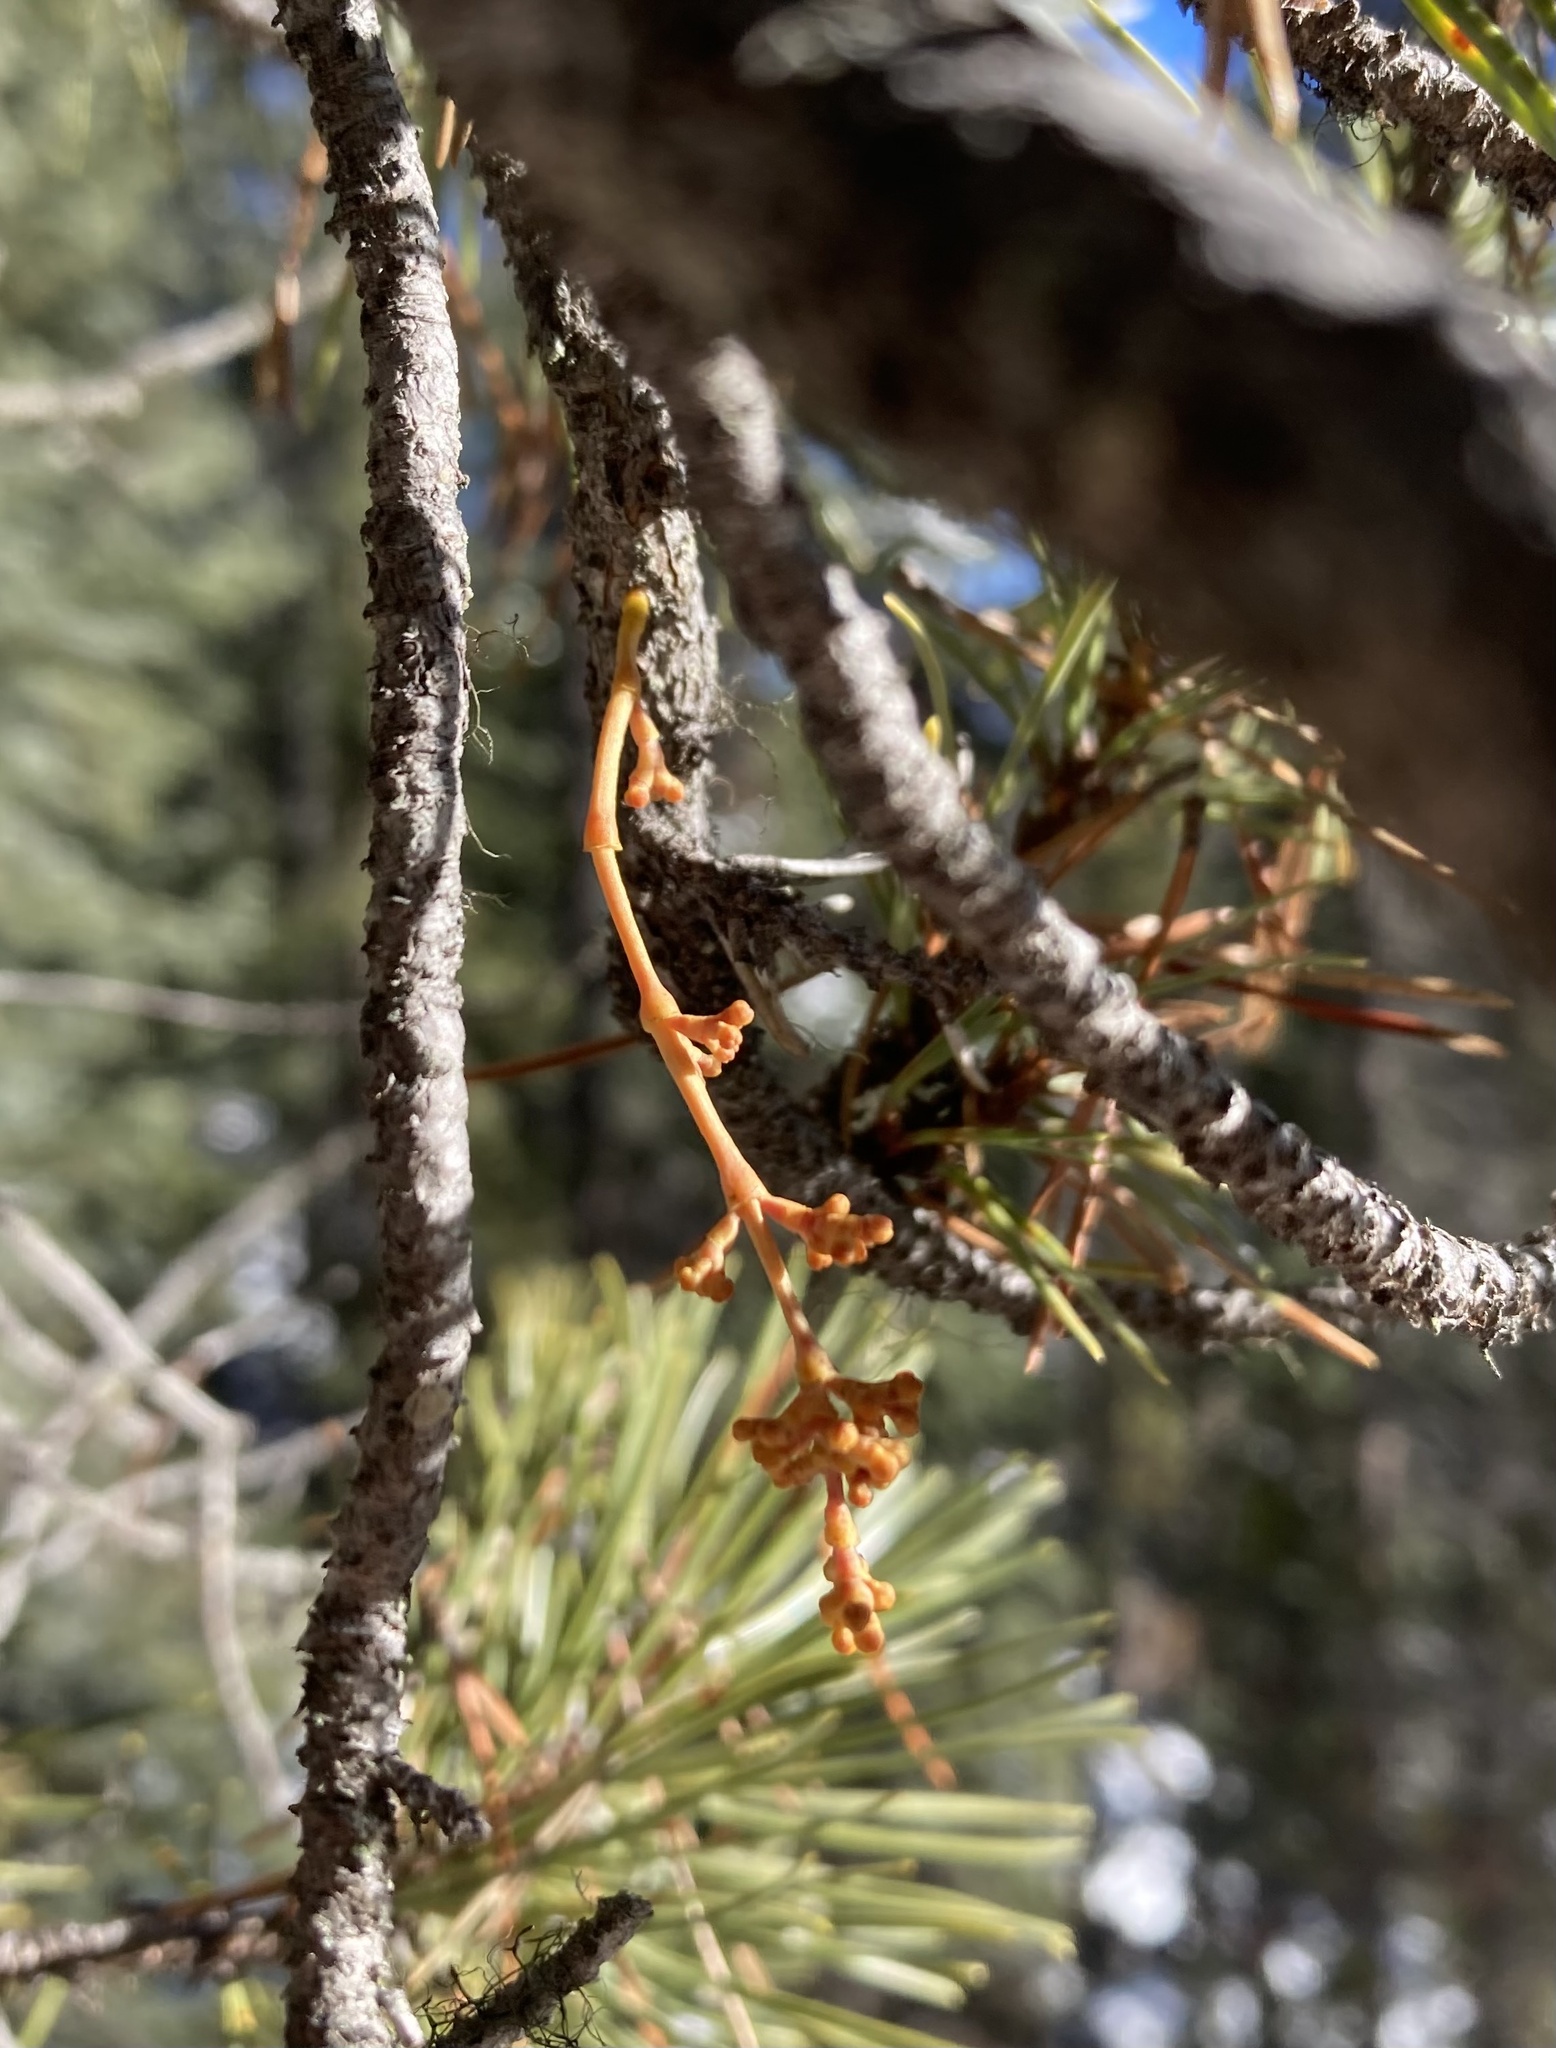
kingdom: Plantae
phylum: Tracheophyta
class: Magnoliopsida
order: Santalales
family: Viscaceae
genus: Arceuthobium
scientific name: Arceuthobium americanum
